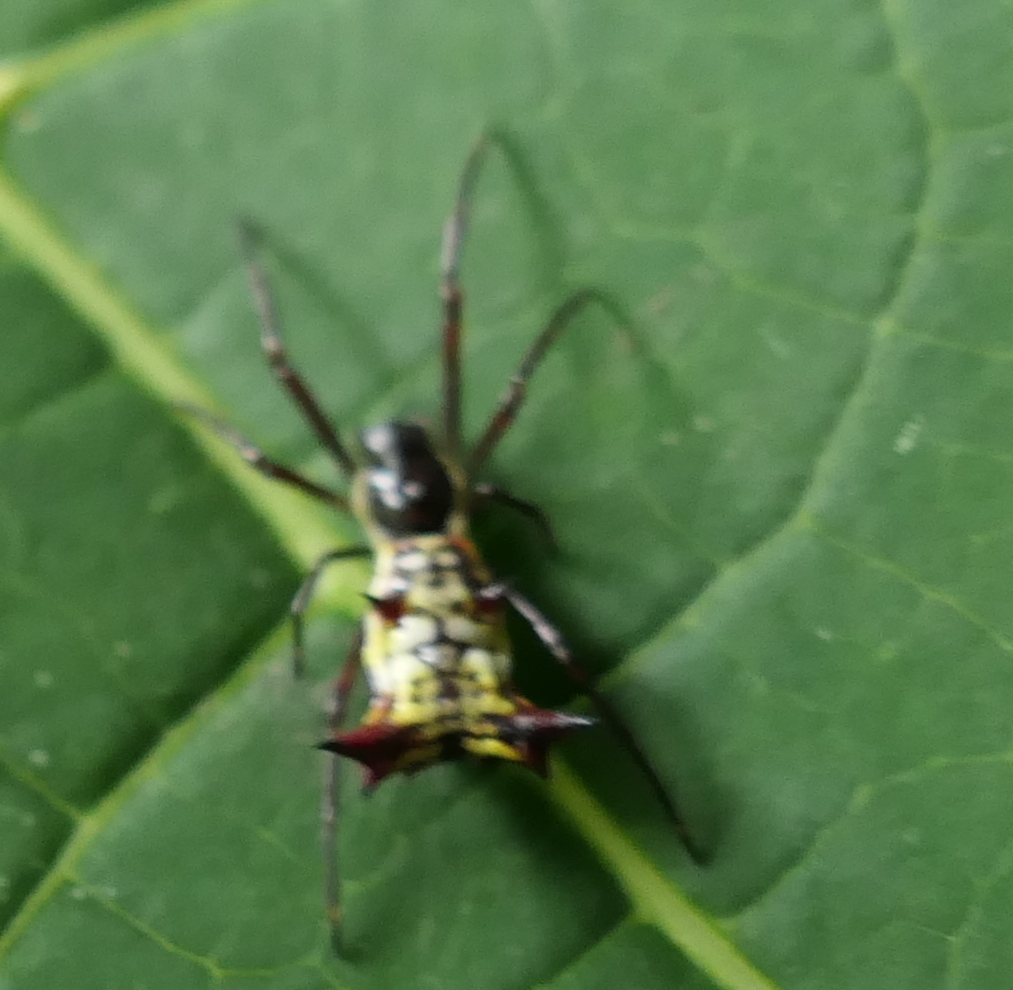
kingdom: Animalia
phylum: Arthropoda
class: Arachnida
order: Araneae
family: Araneidae
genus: Micrathena
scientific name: Micrathena fissispina
